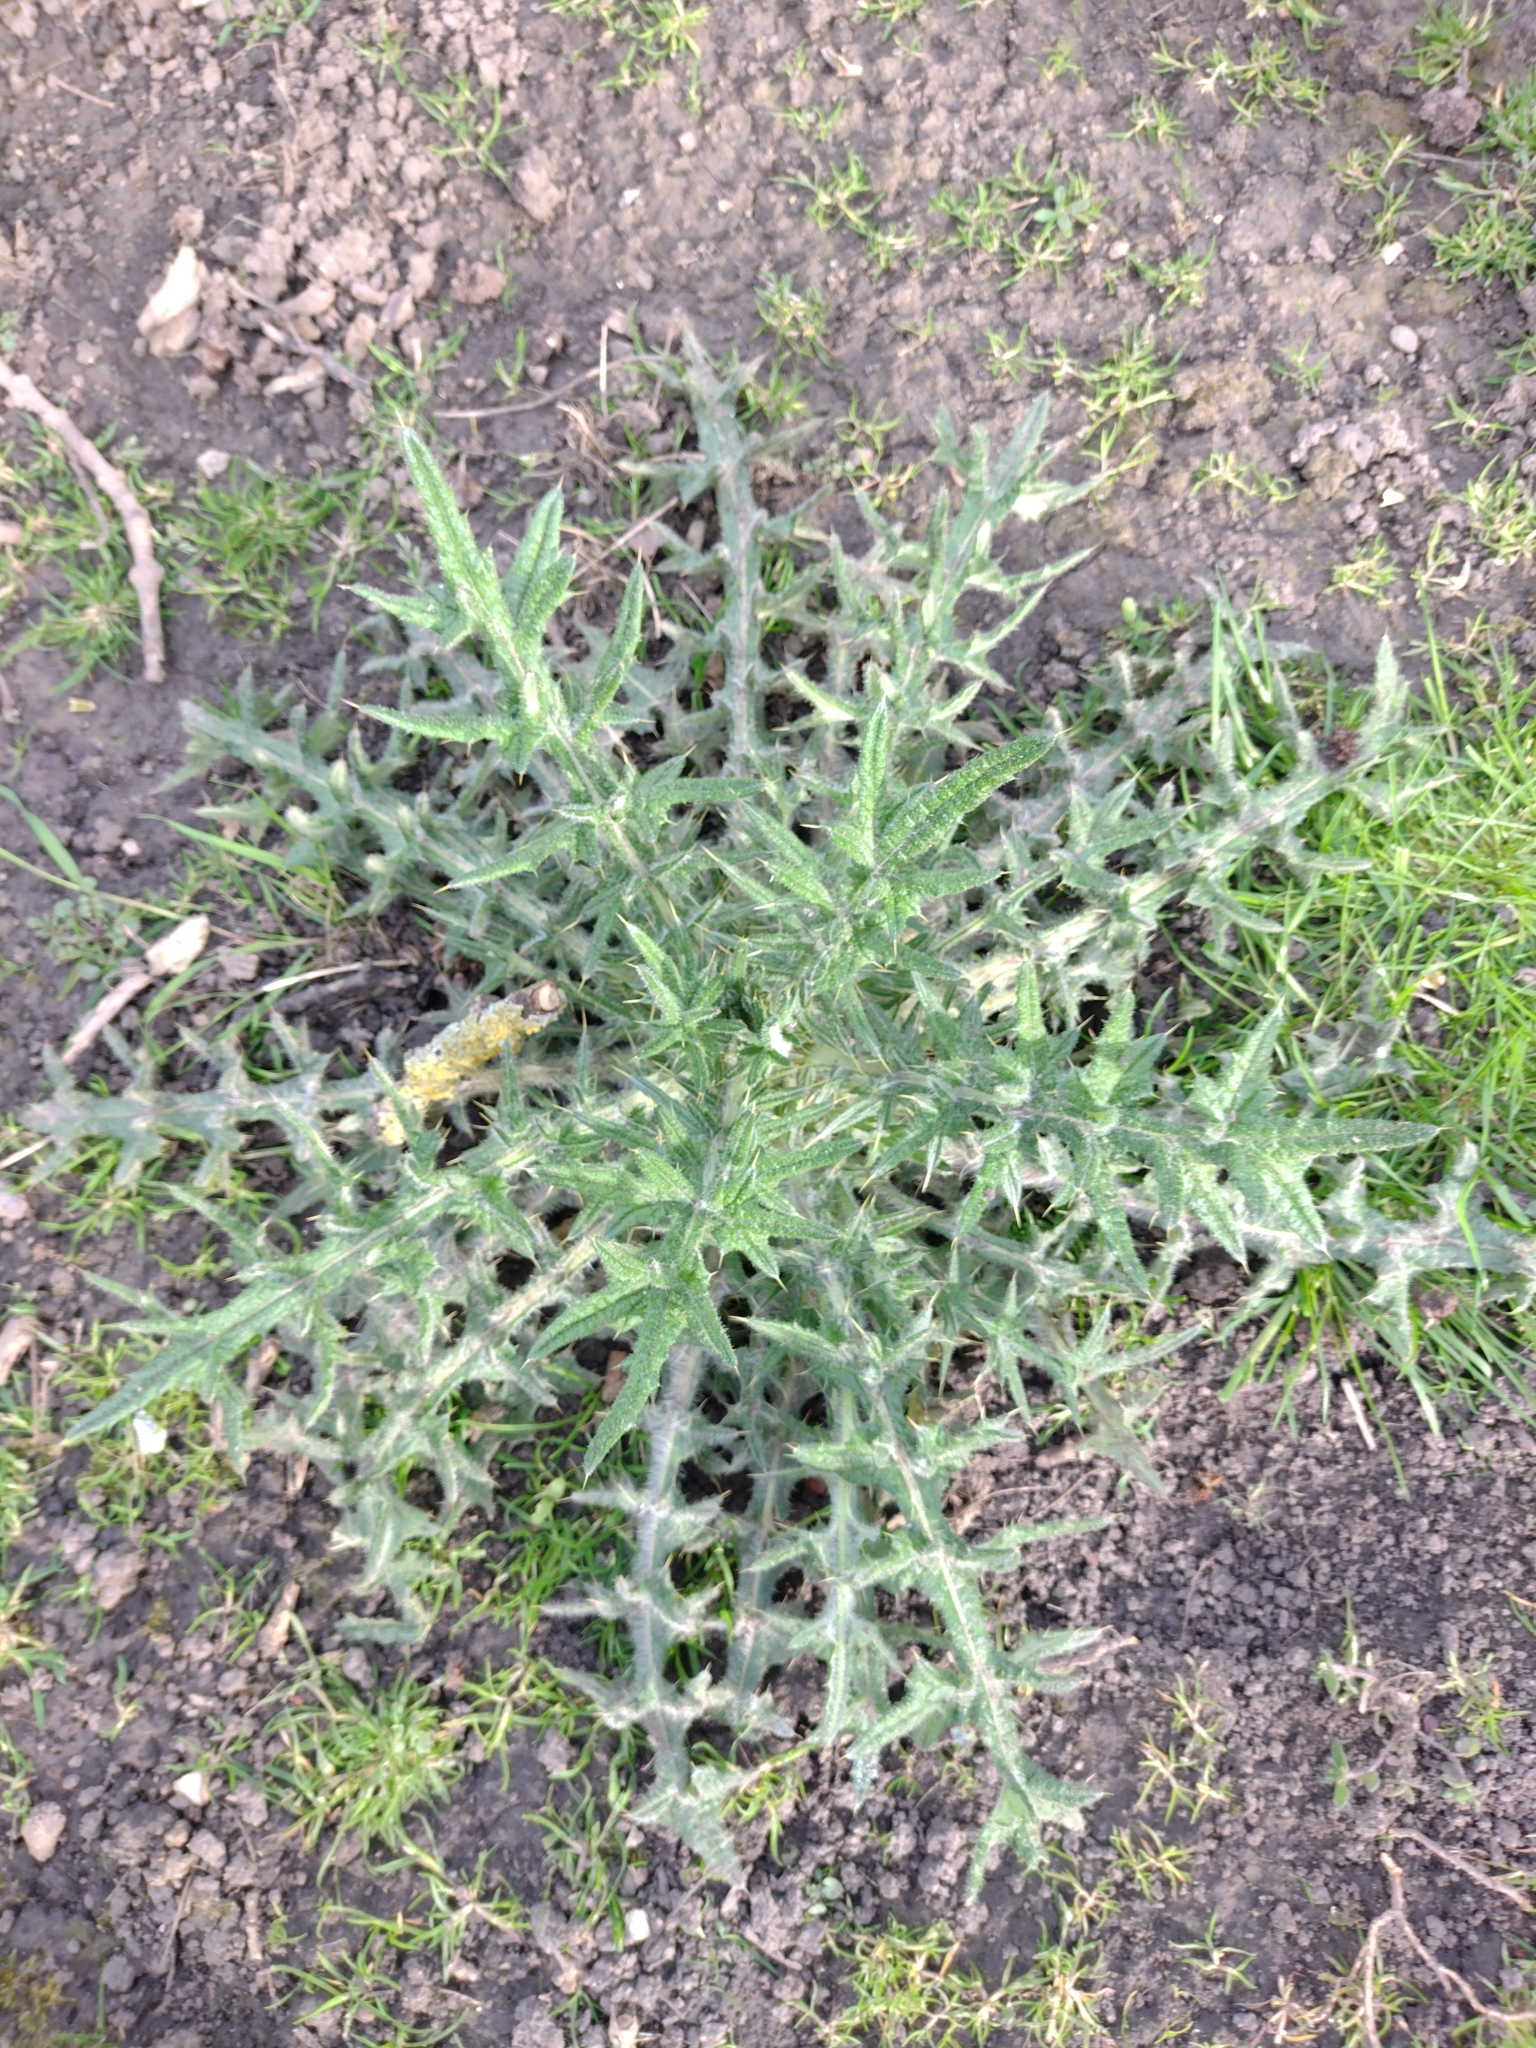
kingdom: Plantae
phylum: Tracheophyta
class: Magnoliopsida
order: Asterales
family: Asteraceae
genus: Cirsium
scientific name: Cirsium vulgare
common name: Bull thistle
